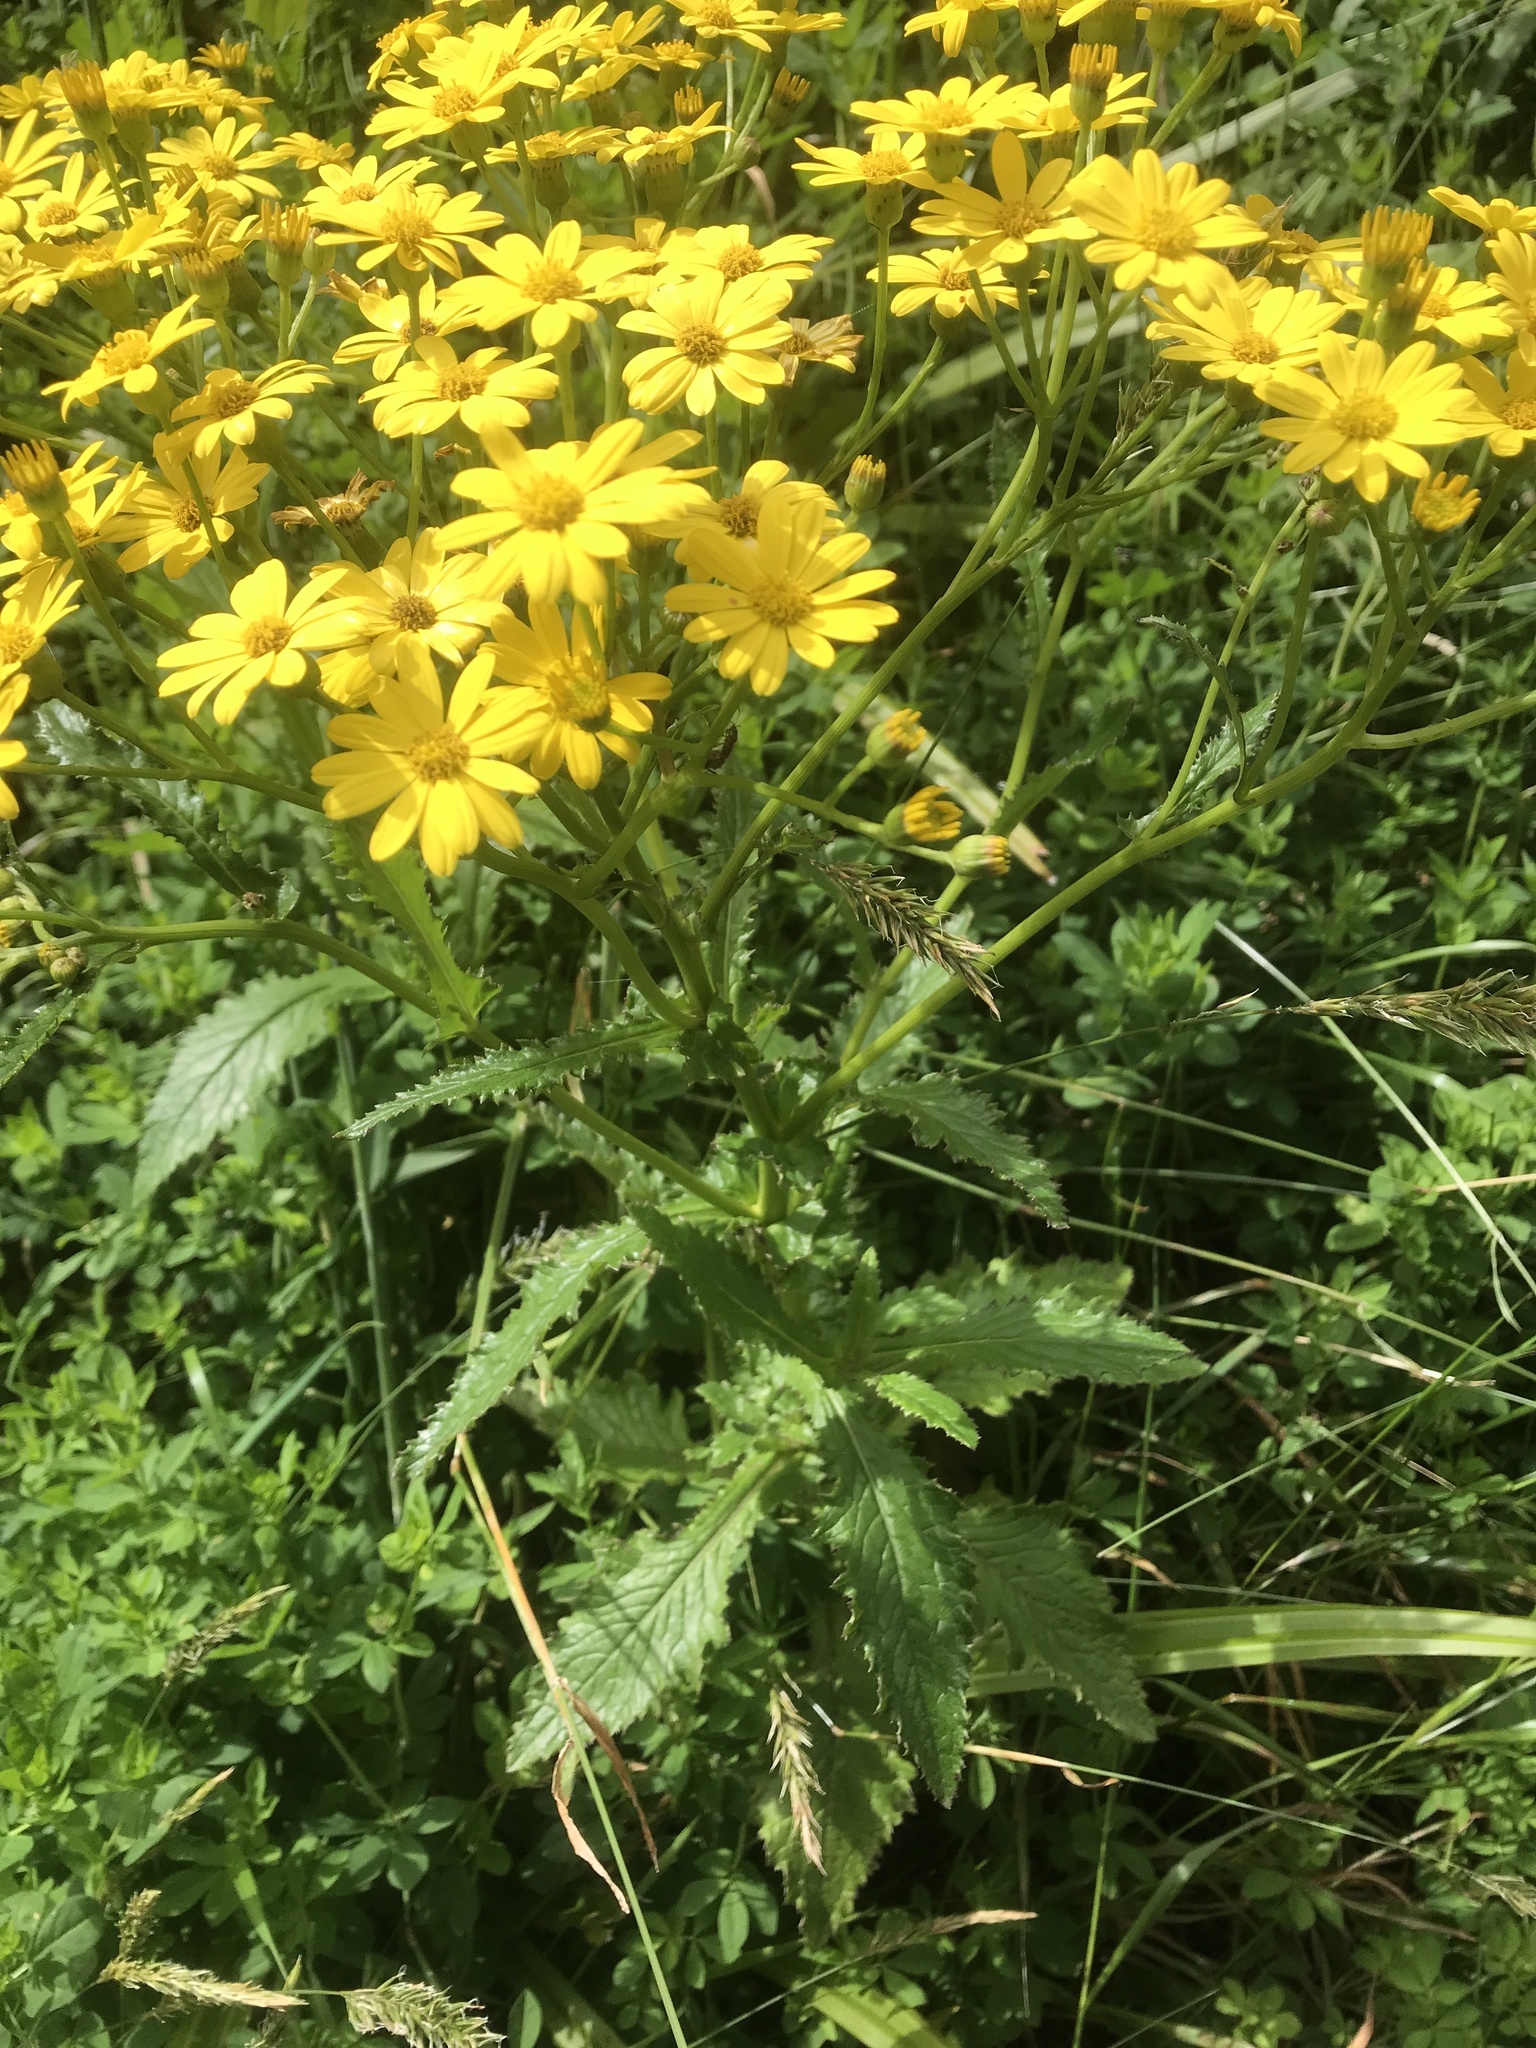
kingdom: Plantae
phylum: Tracheophyta
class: Magnoliopsida
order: Asterales
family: Asteraceae
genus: Senecio
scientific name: Senecio rufiglandulosus
